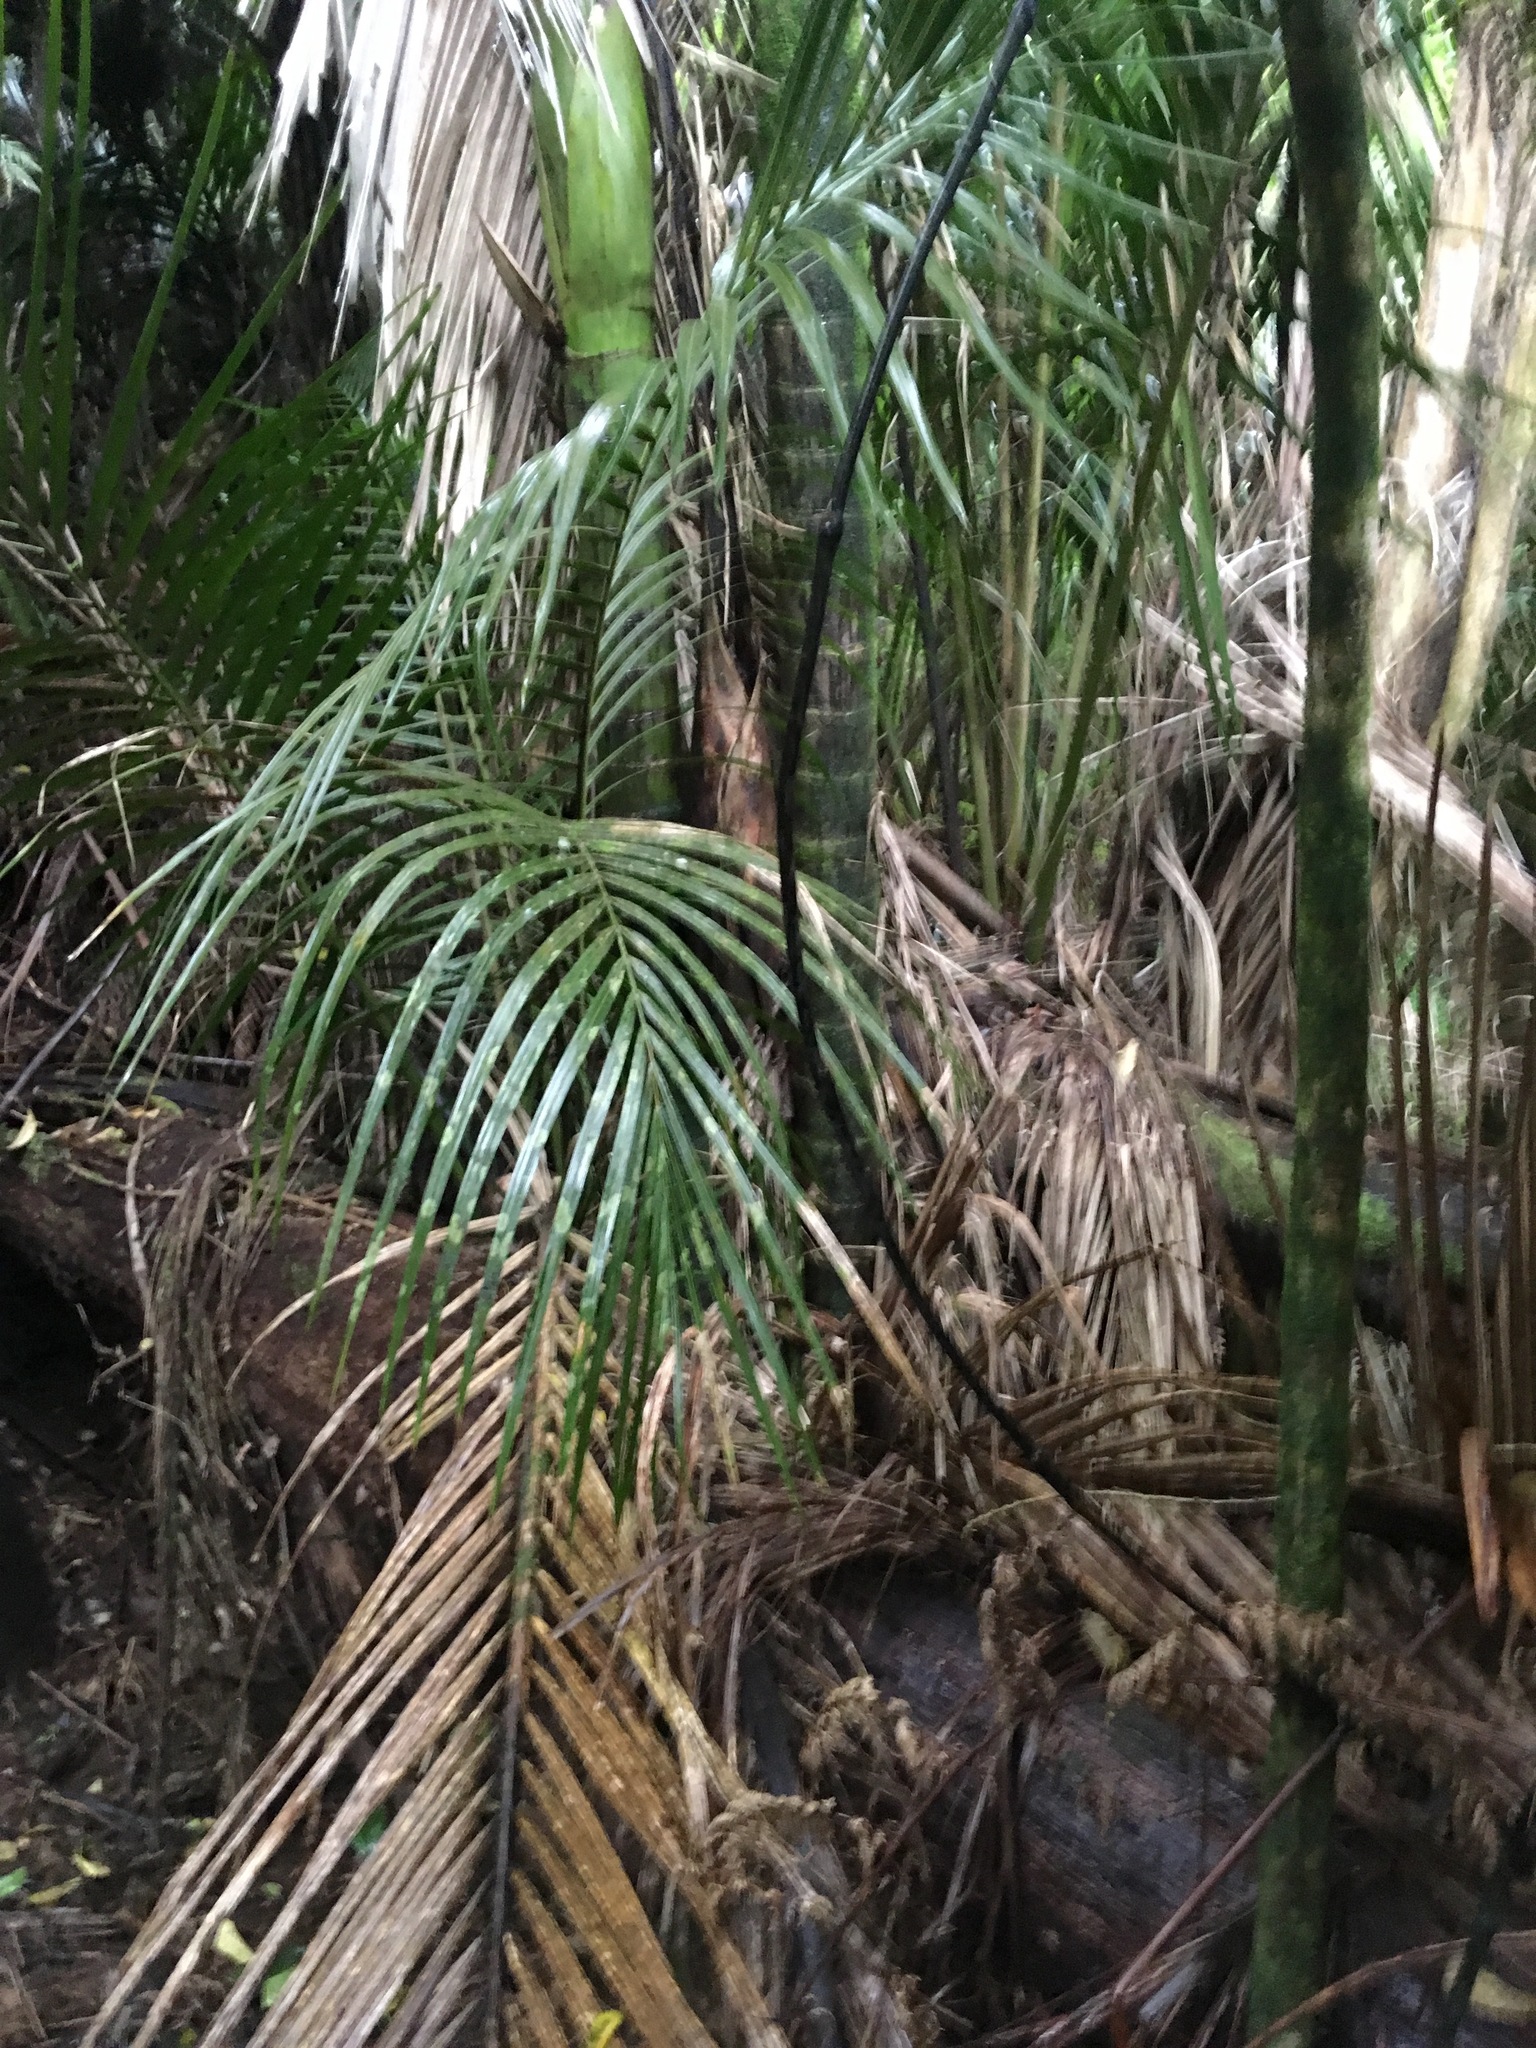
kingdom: Plantae
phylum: Tracheophyta
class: Liliopsida
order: Arecales
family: Arecaceae
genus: Rhopalostylis
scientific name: Rhopalostylis sapida
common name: Feather-duster palm
